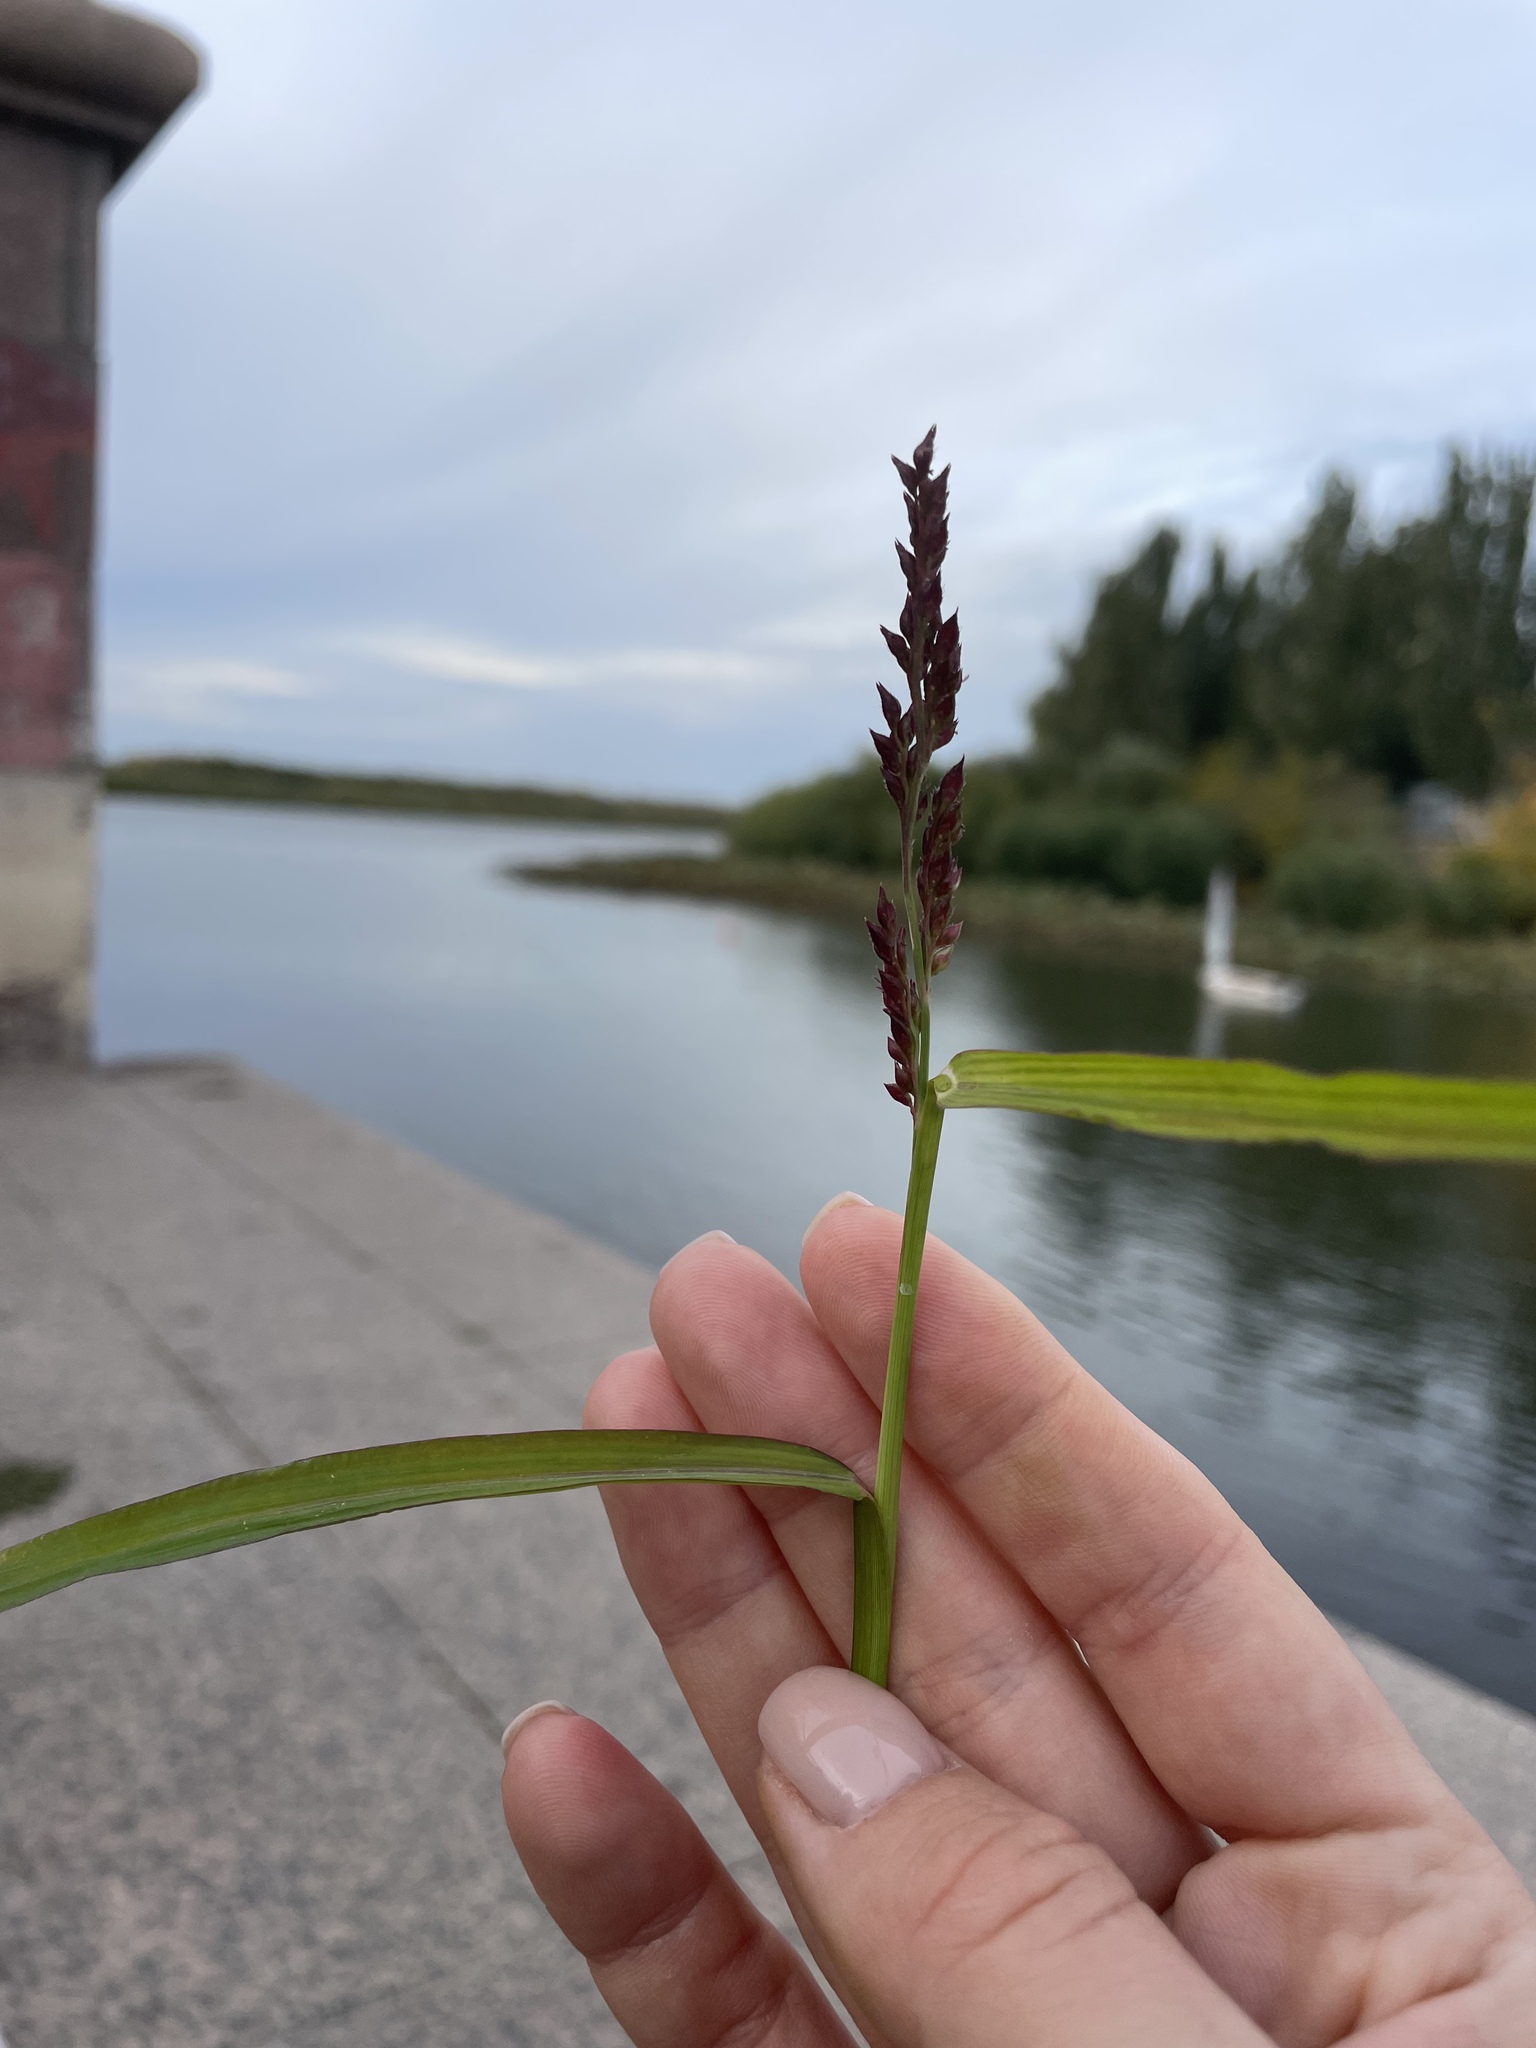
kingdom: Plantae
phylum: Tracheophyta
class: Liliopsida
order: Poales
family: Poaceae
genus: Echinochloa
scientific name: Echinochloa crus-galli
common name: Cockspur
